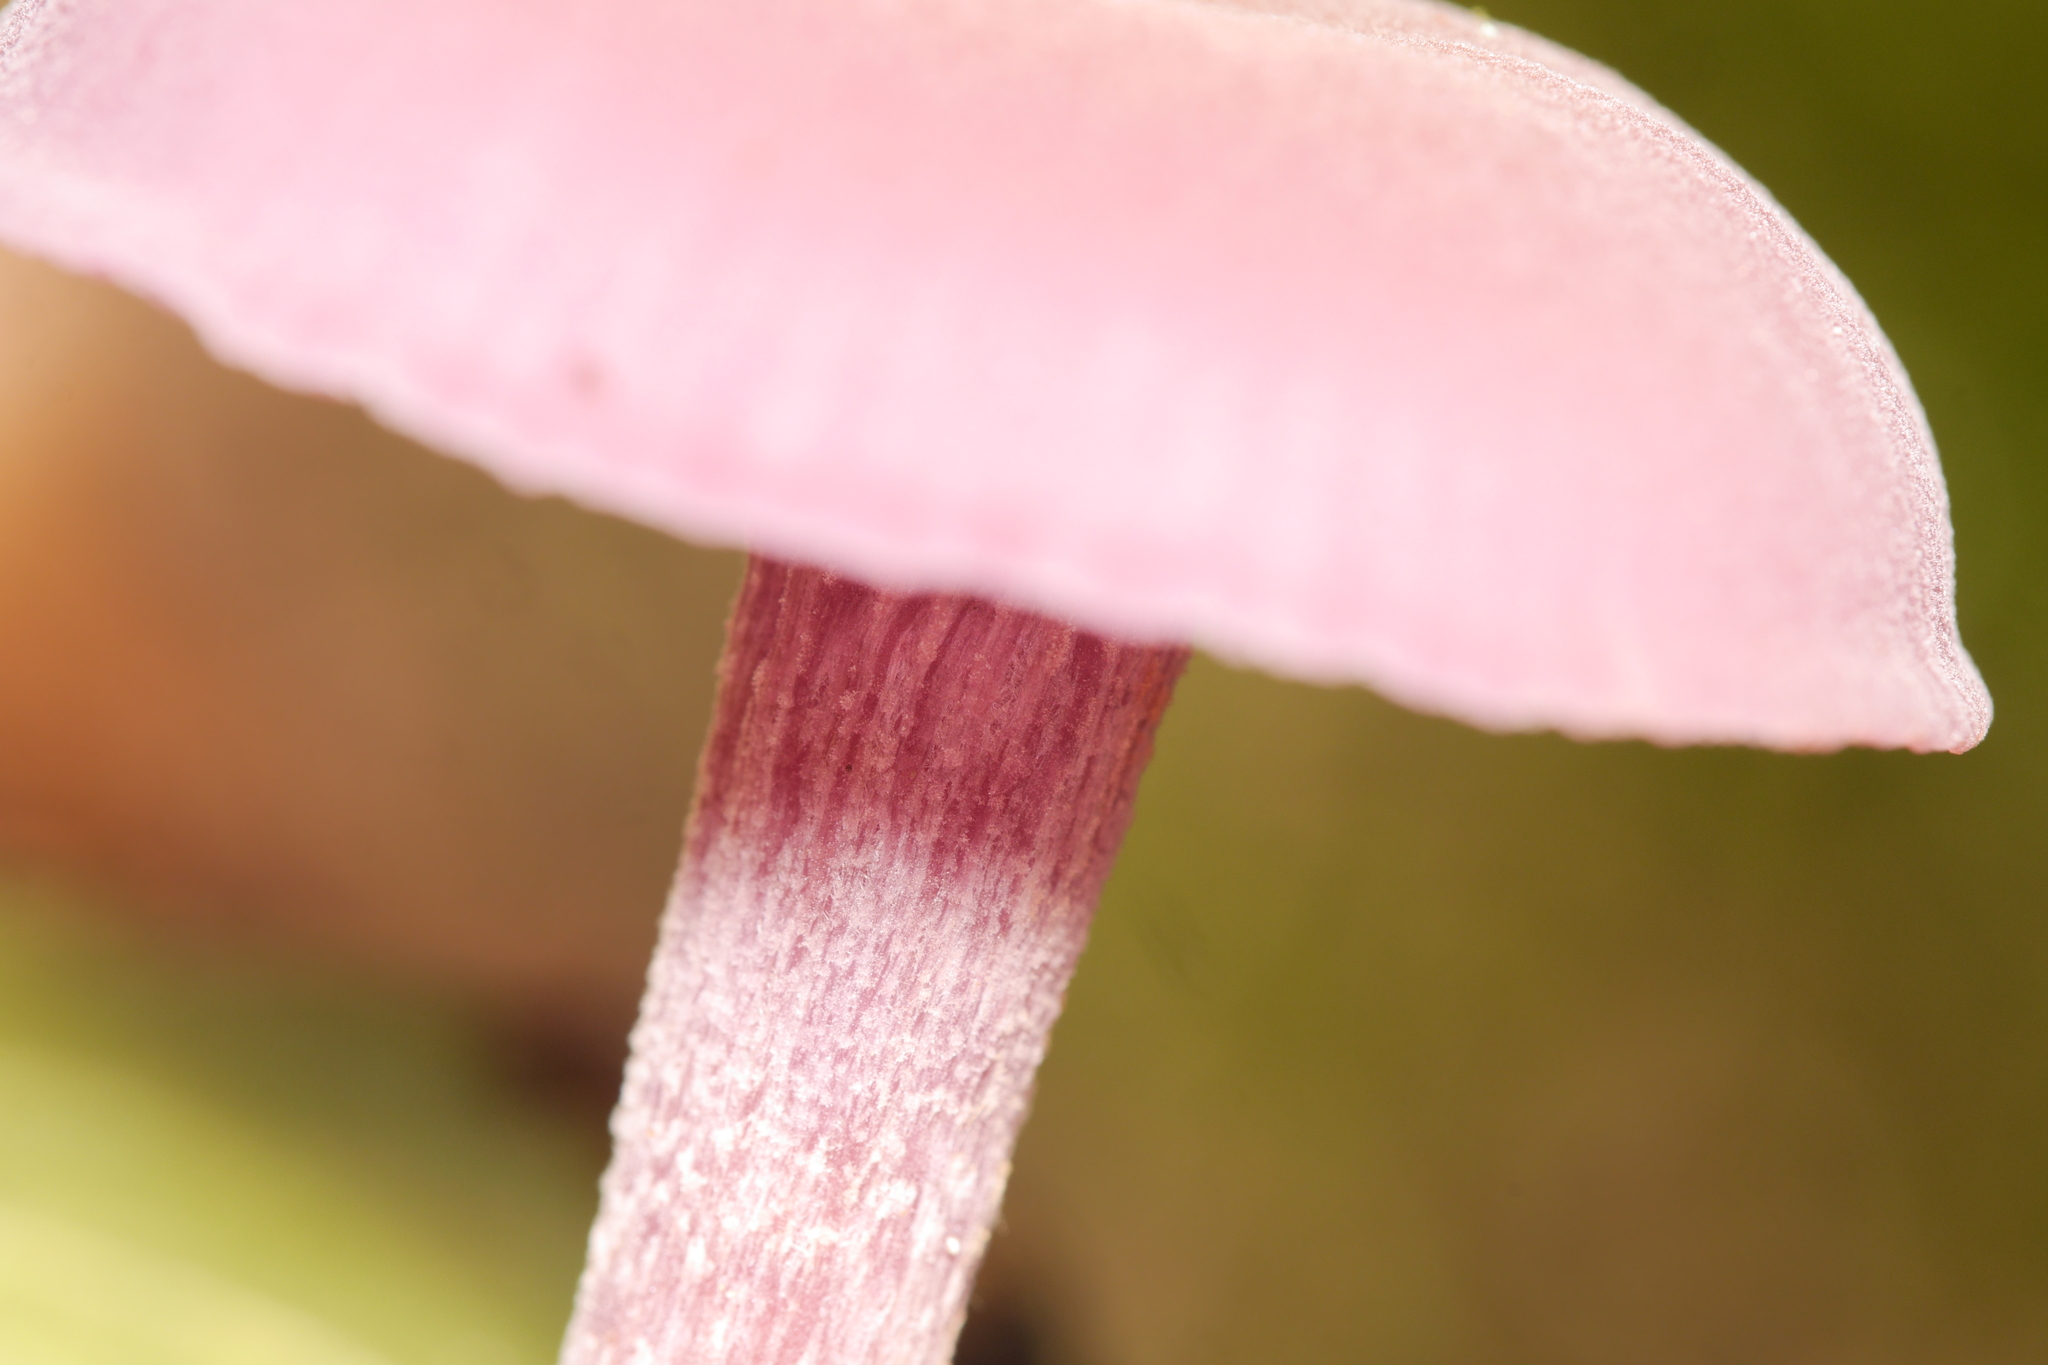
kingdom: Fungi
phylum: Basidiomycota
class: Agaricomycetes
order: Agaricales
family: Hydnangiaceae
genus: Laccaria
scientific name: Laccaria amethystina
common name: Amethyst deceiver
